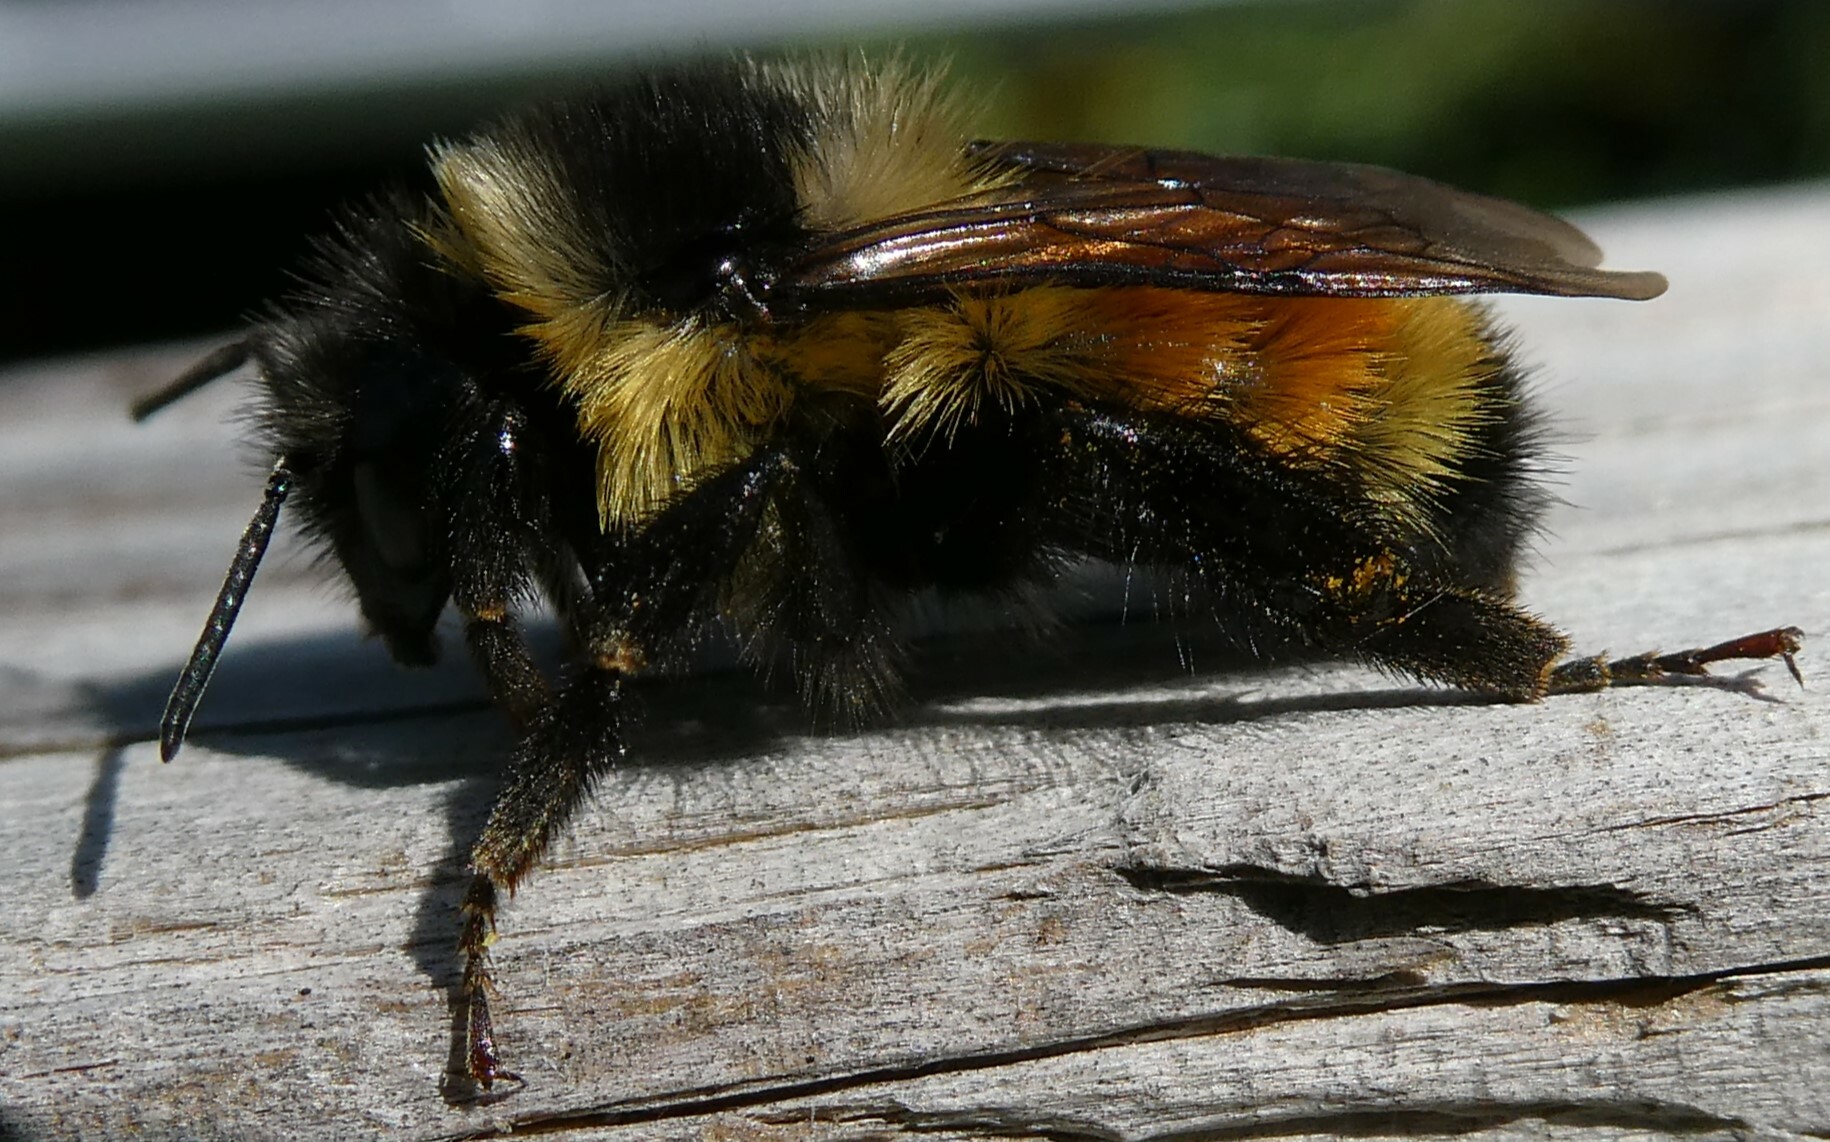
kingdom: Animalia
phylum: Arthropoda
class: Insecta
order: Hymenoptera
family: Apidae
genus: Bombus
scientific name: Bombus ternarius
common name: Tri-colored bumble bee
